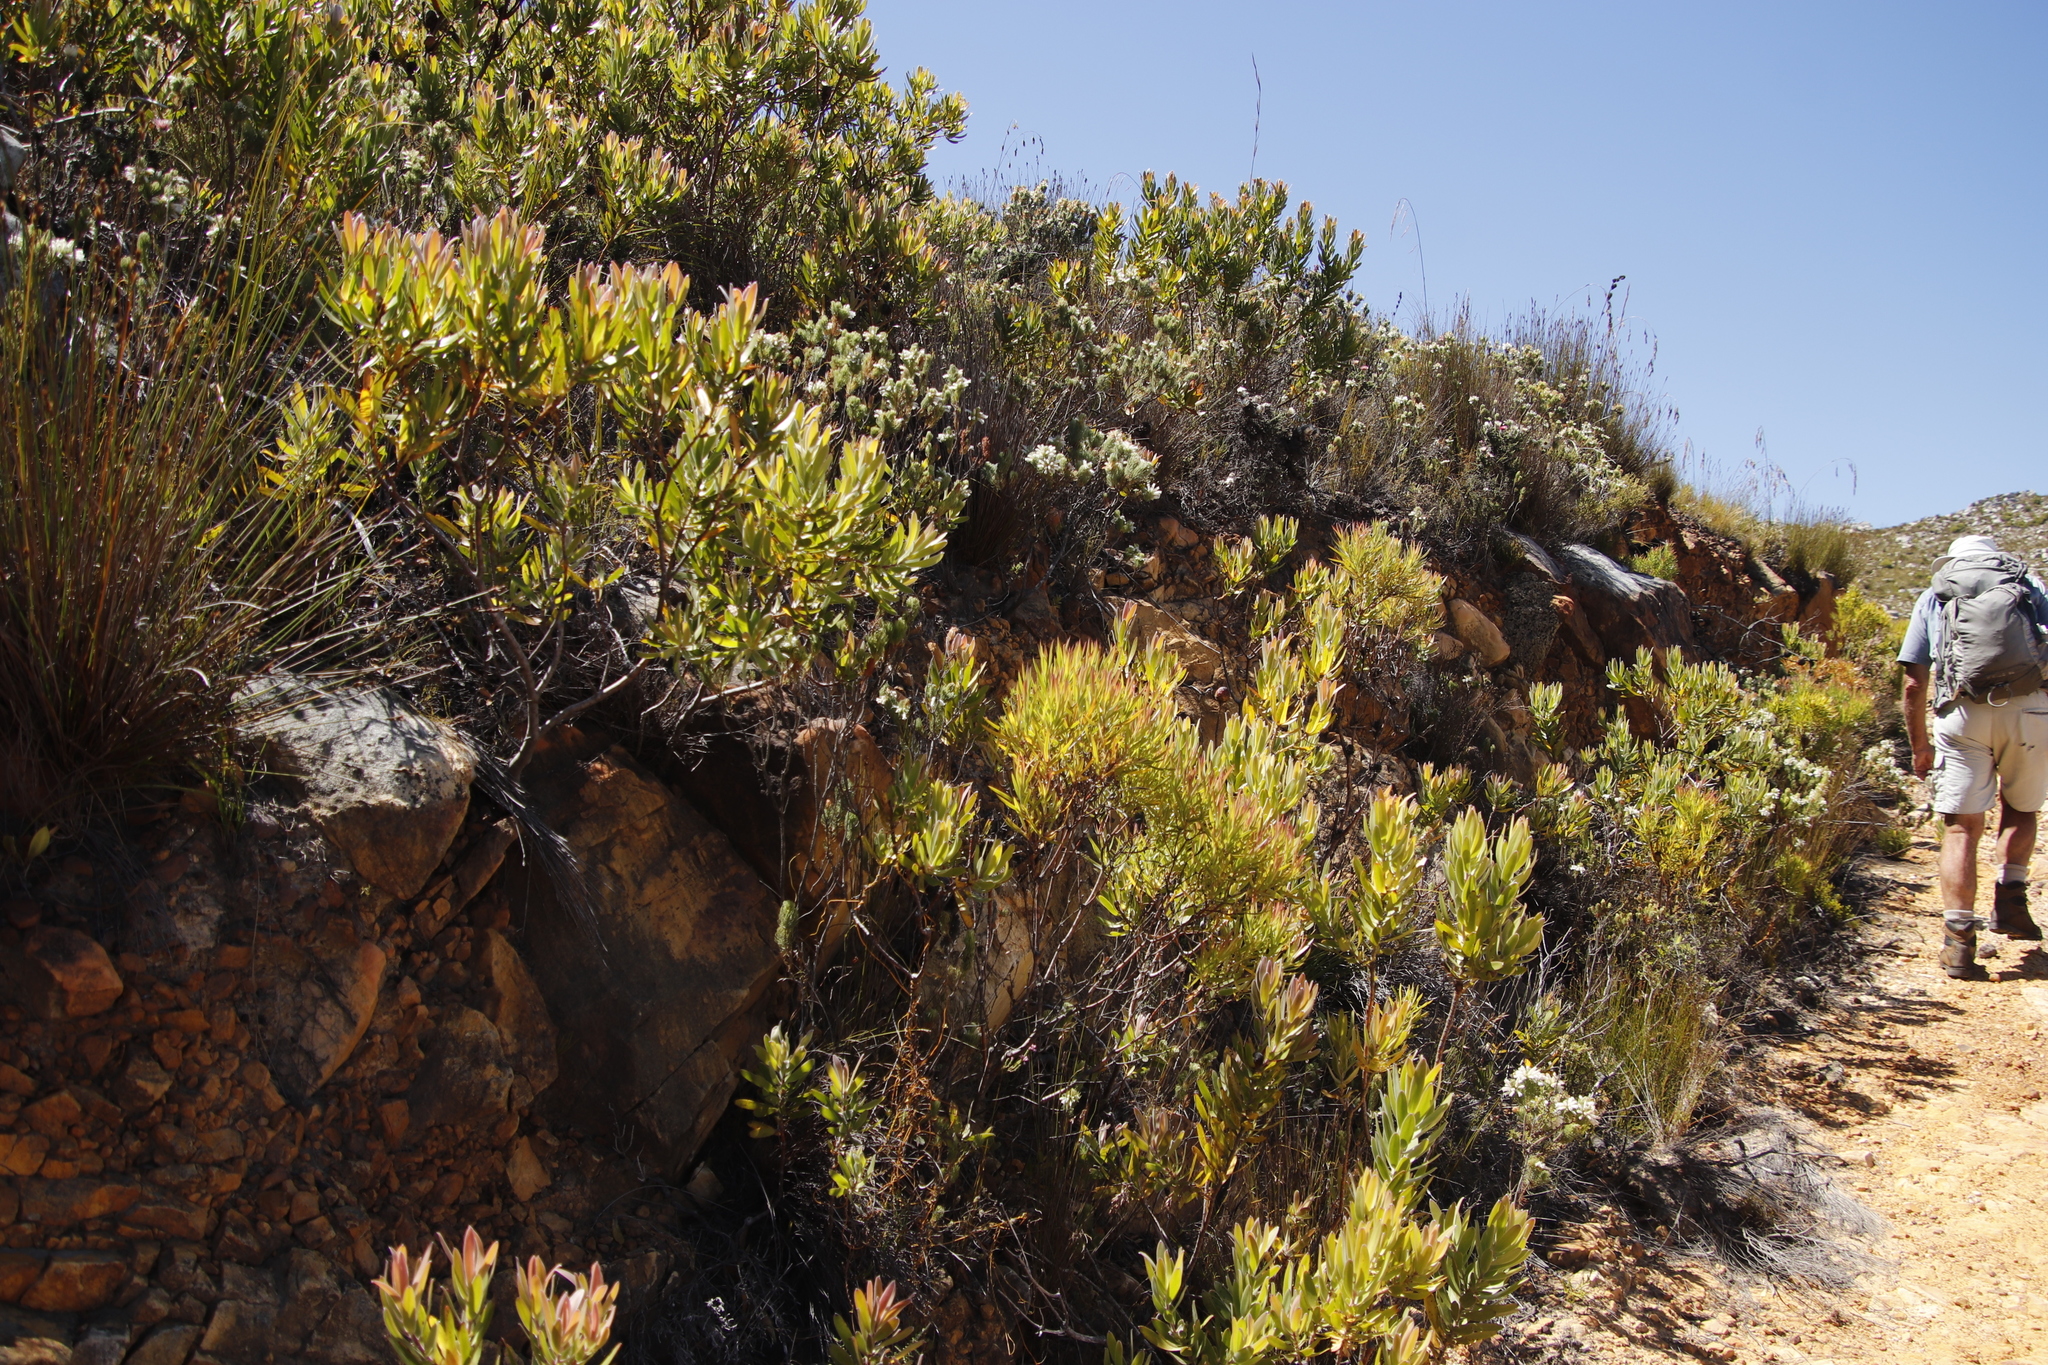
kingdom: Plantae
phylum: Tracheophyta
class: Magnoliopsida
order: Proteales
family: Proteaceae
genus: Leucadendron
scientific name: Leucadendron laureolum
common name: Golden sunshinebush
